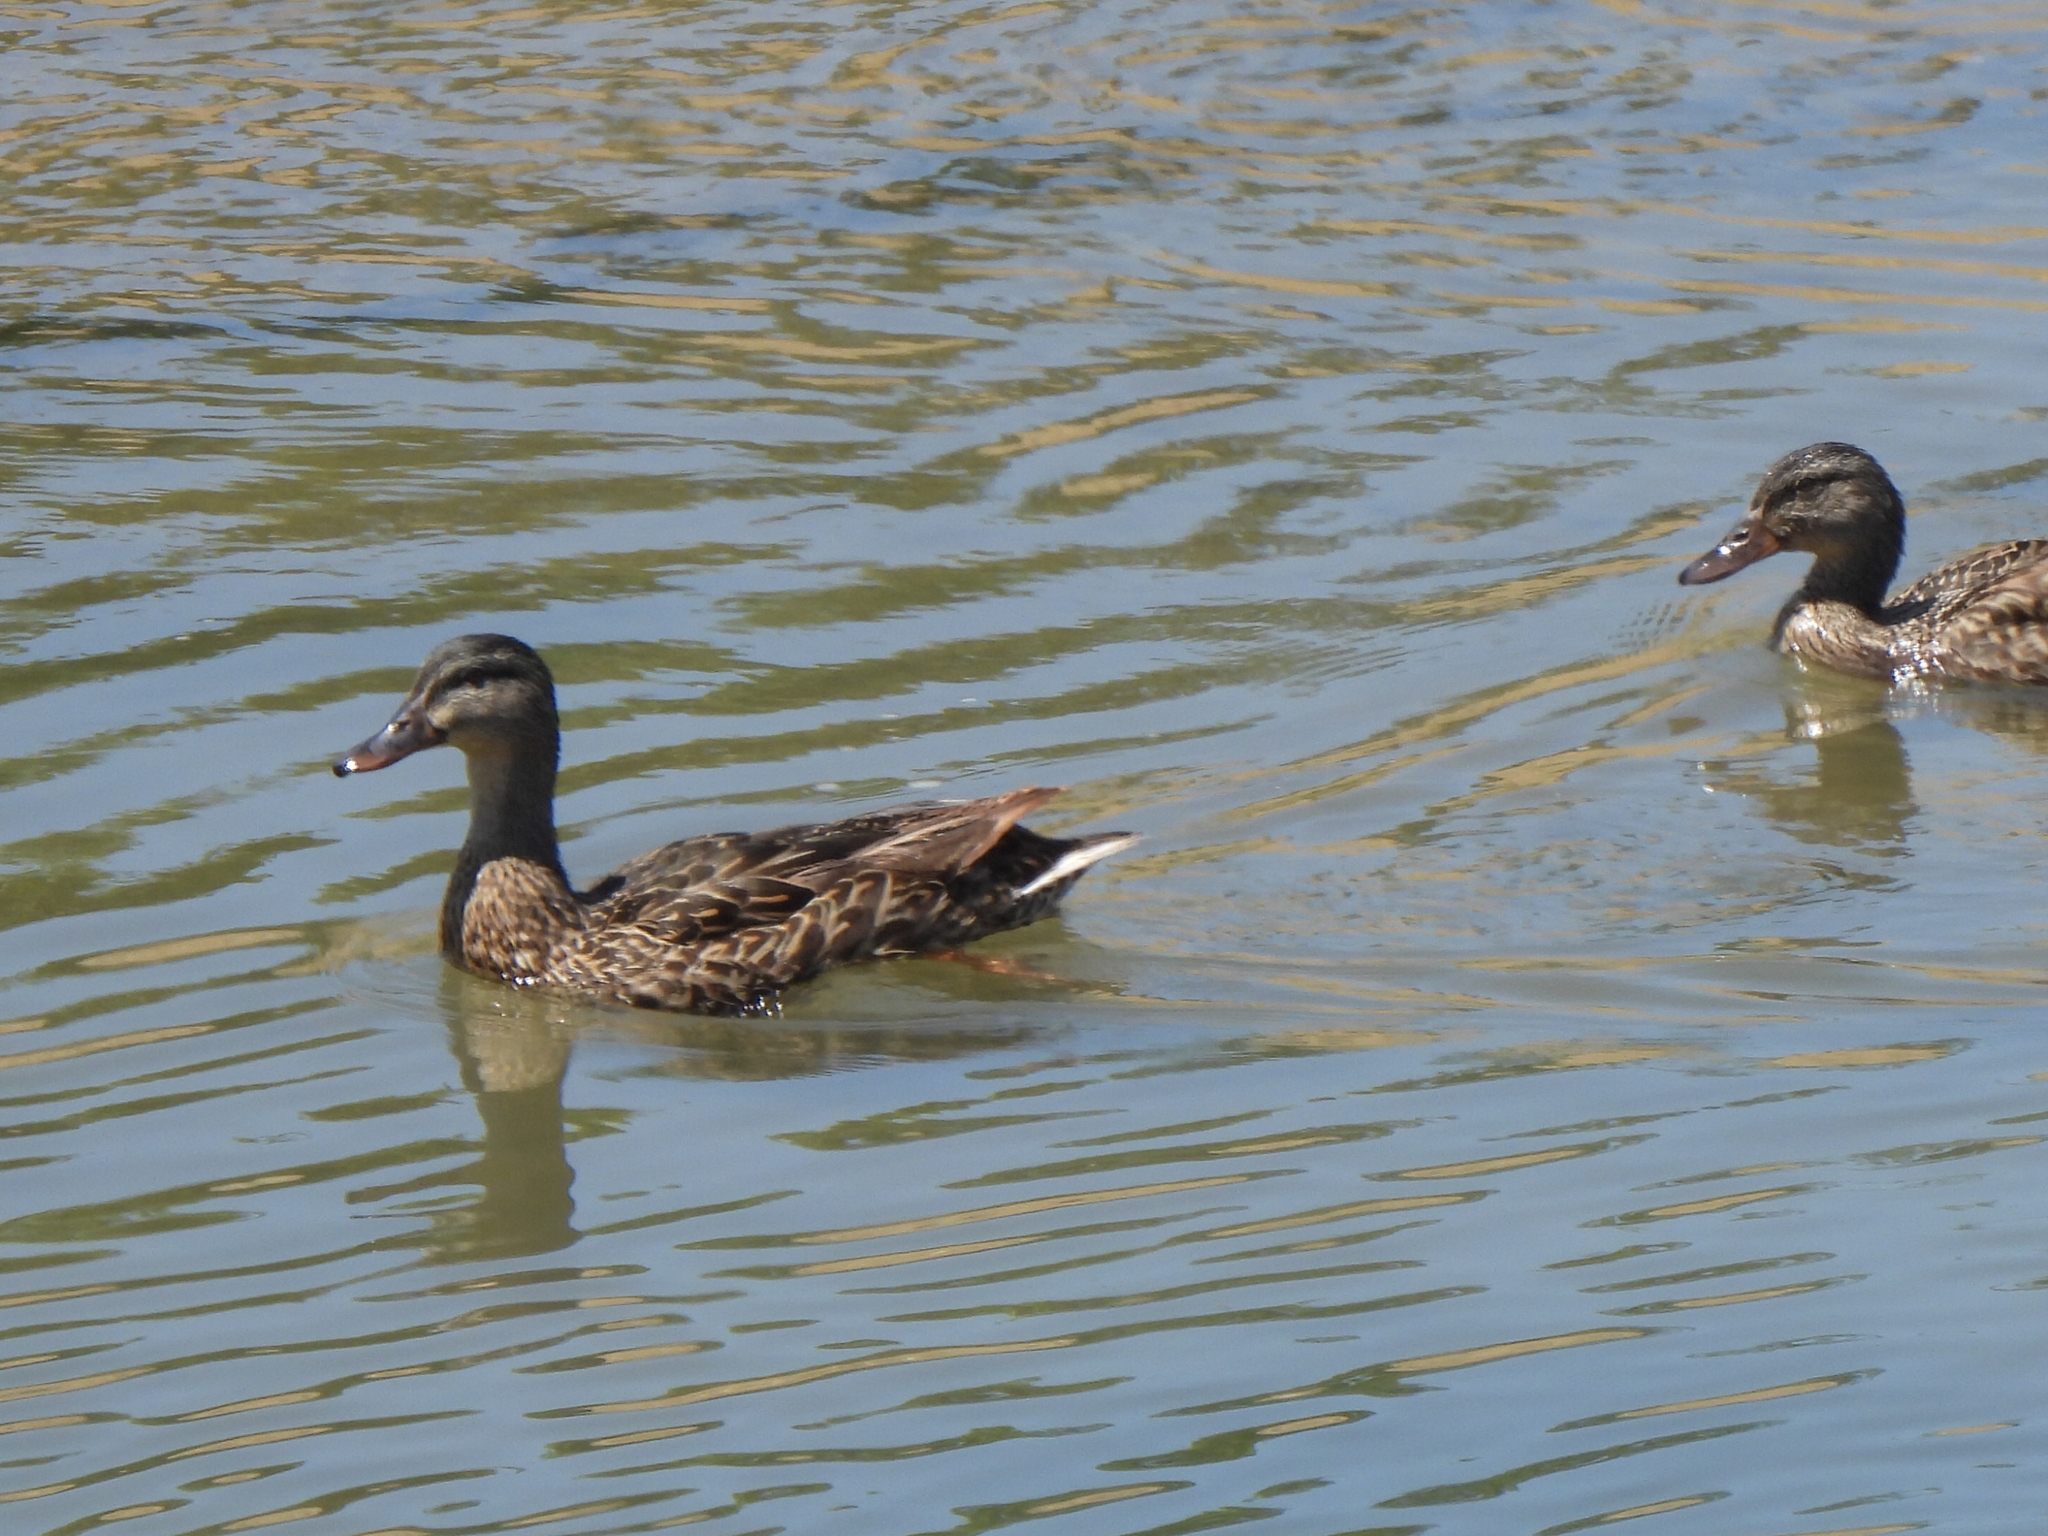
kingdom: Animalia
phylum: Chordata
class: Aves
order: Anseriformes
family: Anatidae
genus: Anas
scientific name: Anas platyrhynchos
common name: Mallard
